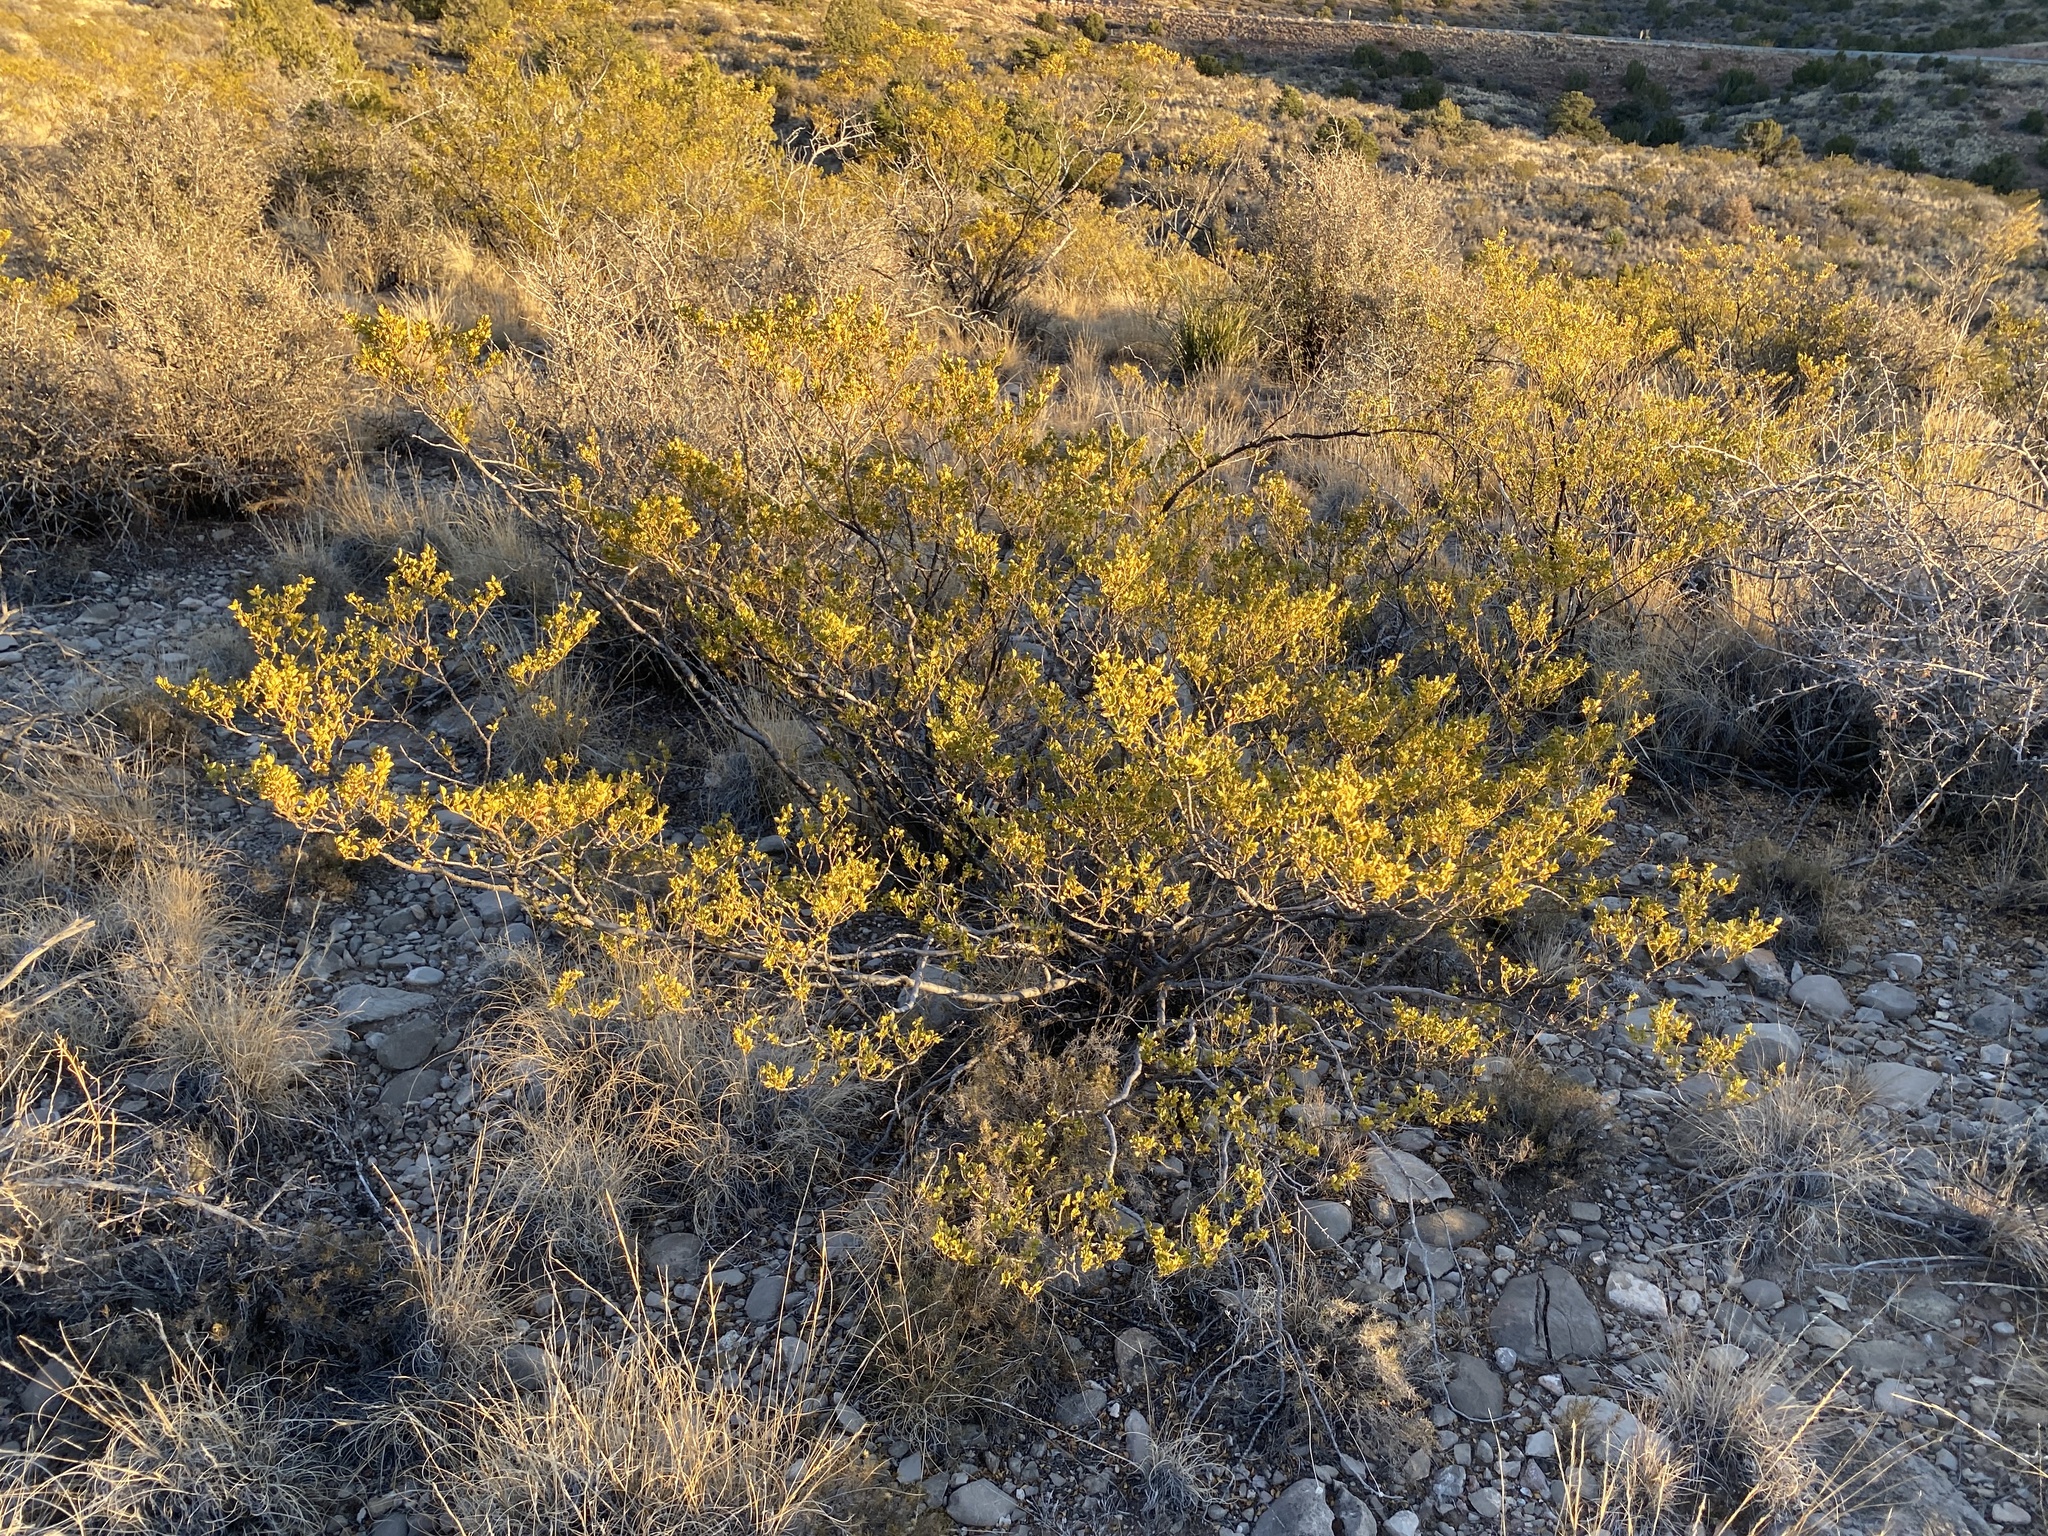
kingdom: Plantae
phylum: Tracheophyta
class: Magnoliopsida
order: Zygophyllales
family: Zygophyllaceae
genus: Larrea
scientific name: Larrea tridentata
